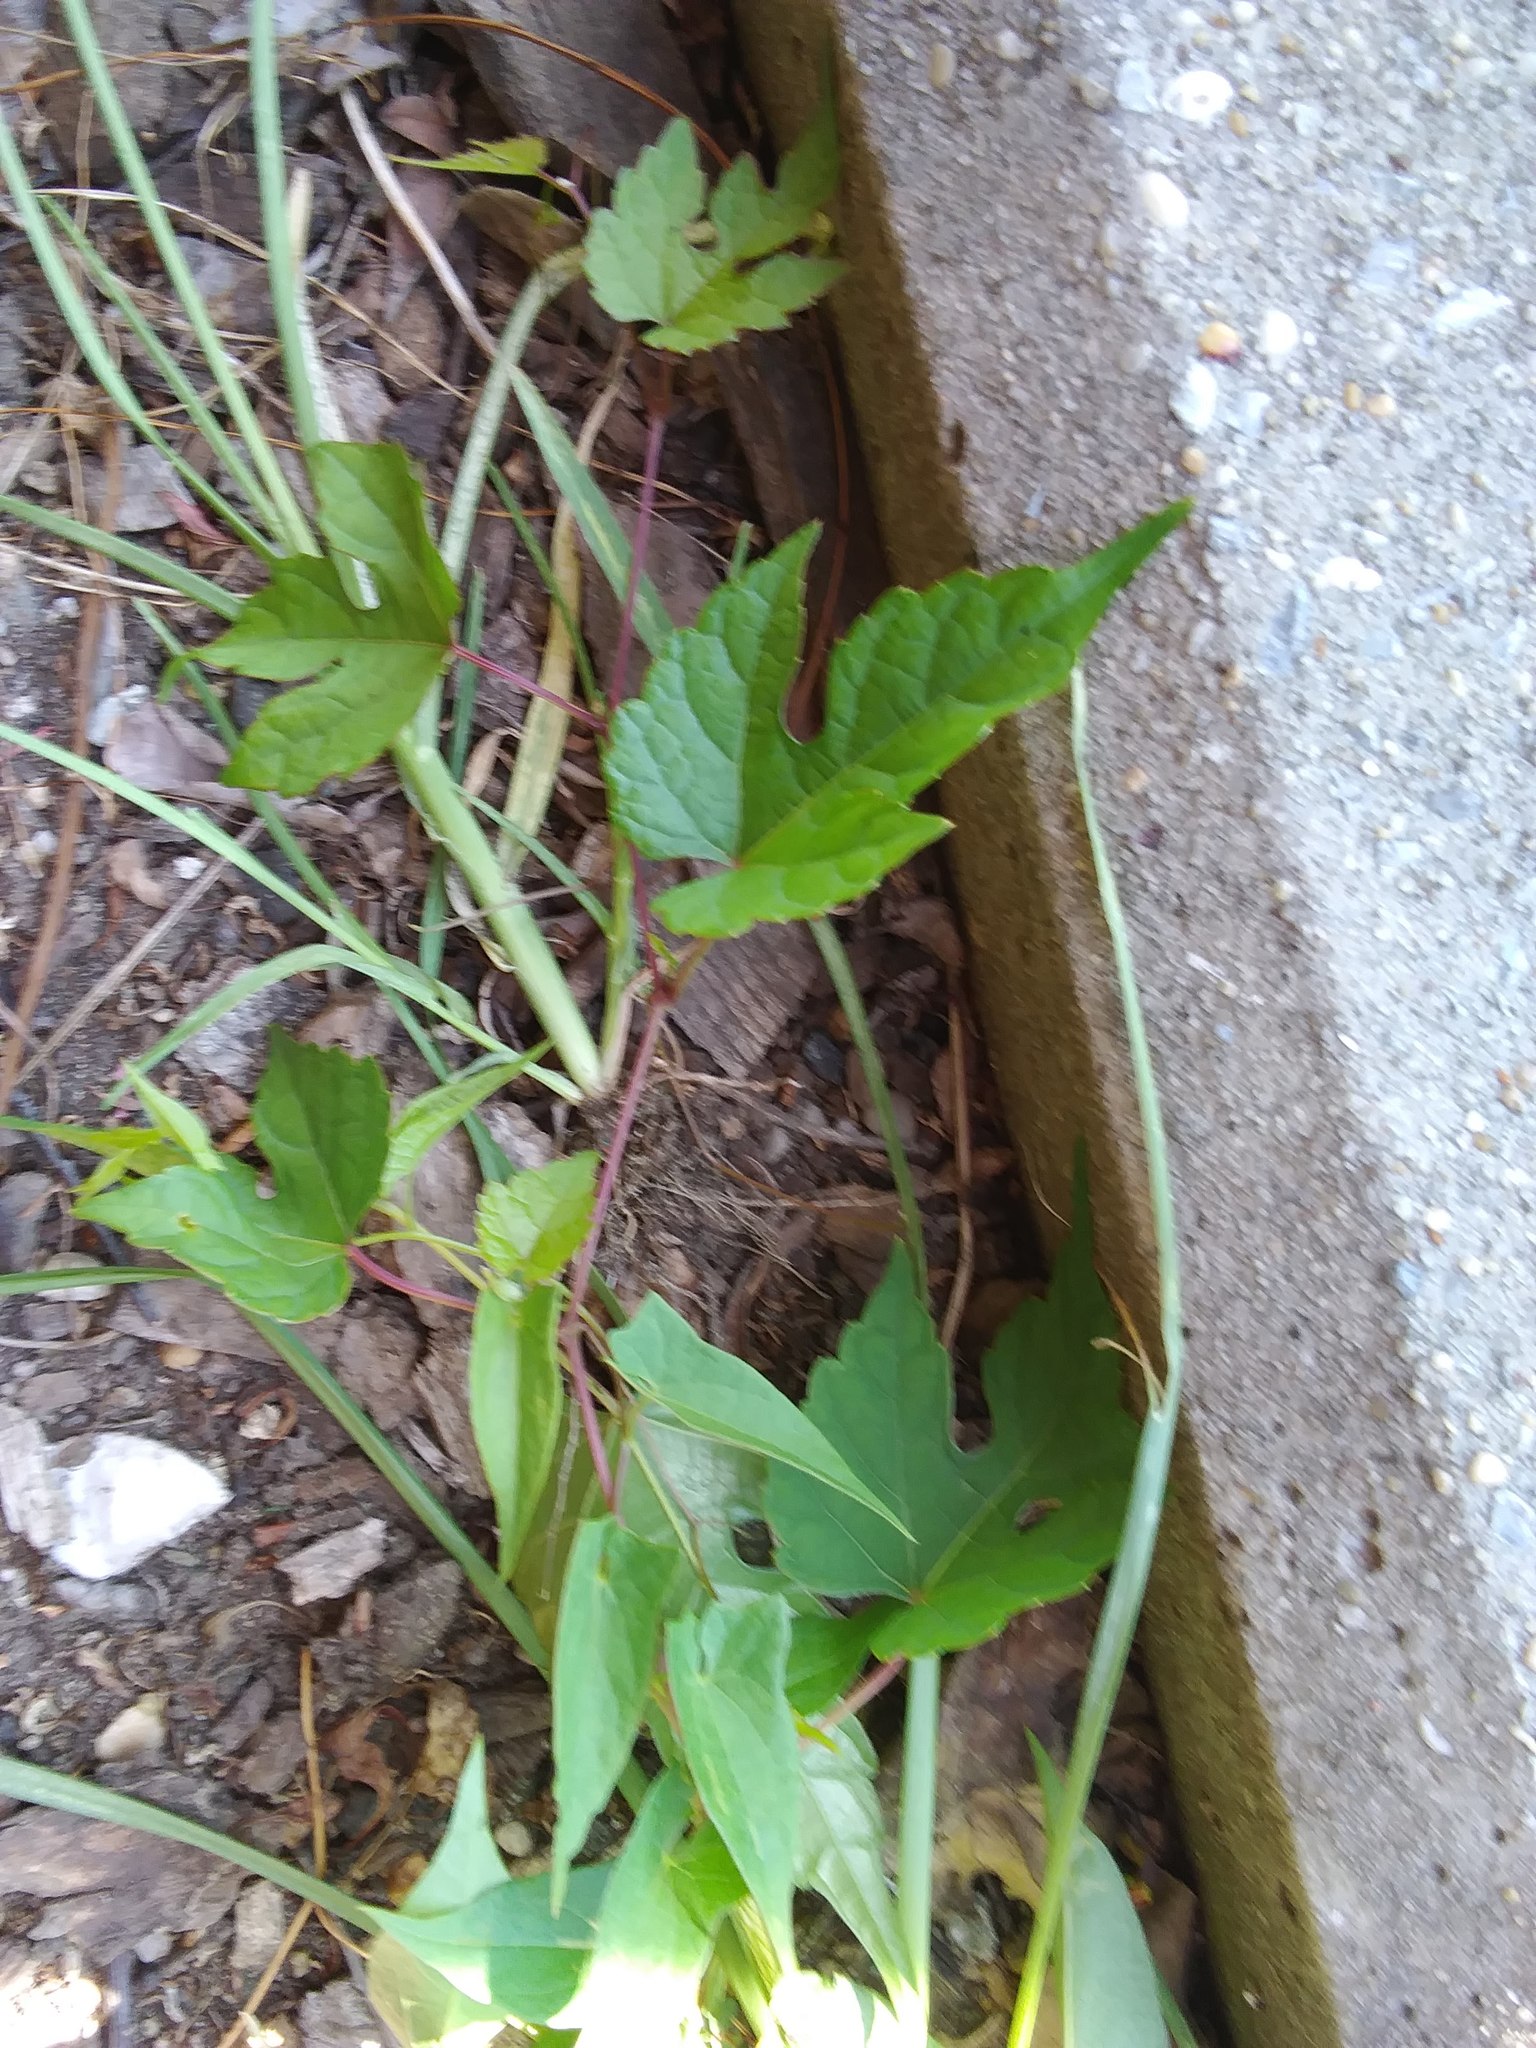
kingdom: Plantae
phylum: Tracheophyta
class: Magnoliopsida
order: Vitales
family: Vitaceae
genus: Ampelopsis
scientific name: Ampelopsis glandulosa
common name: Amur peppervine
